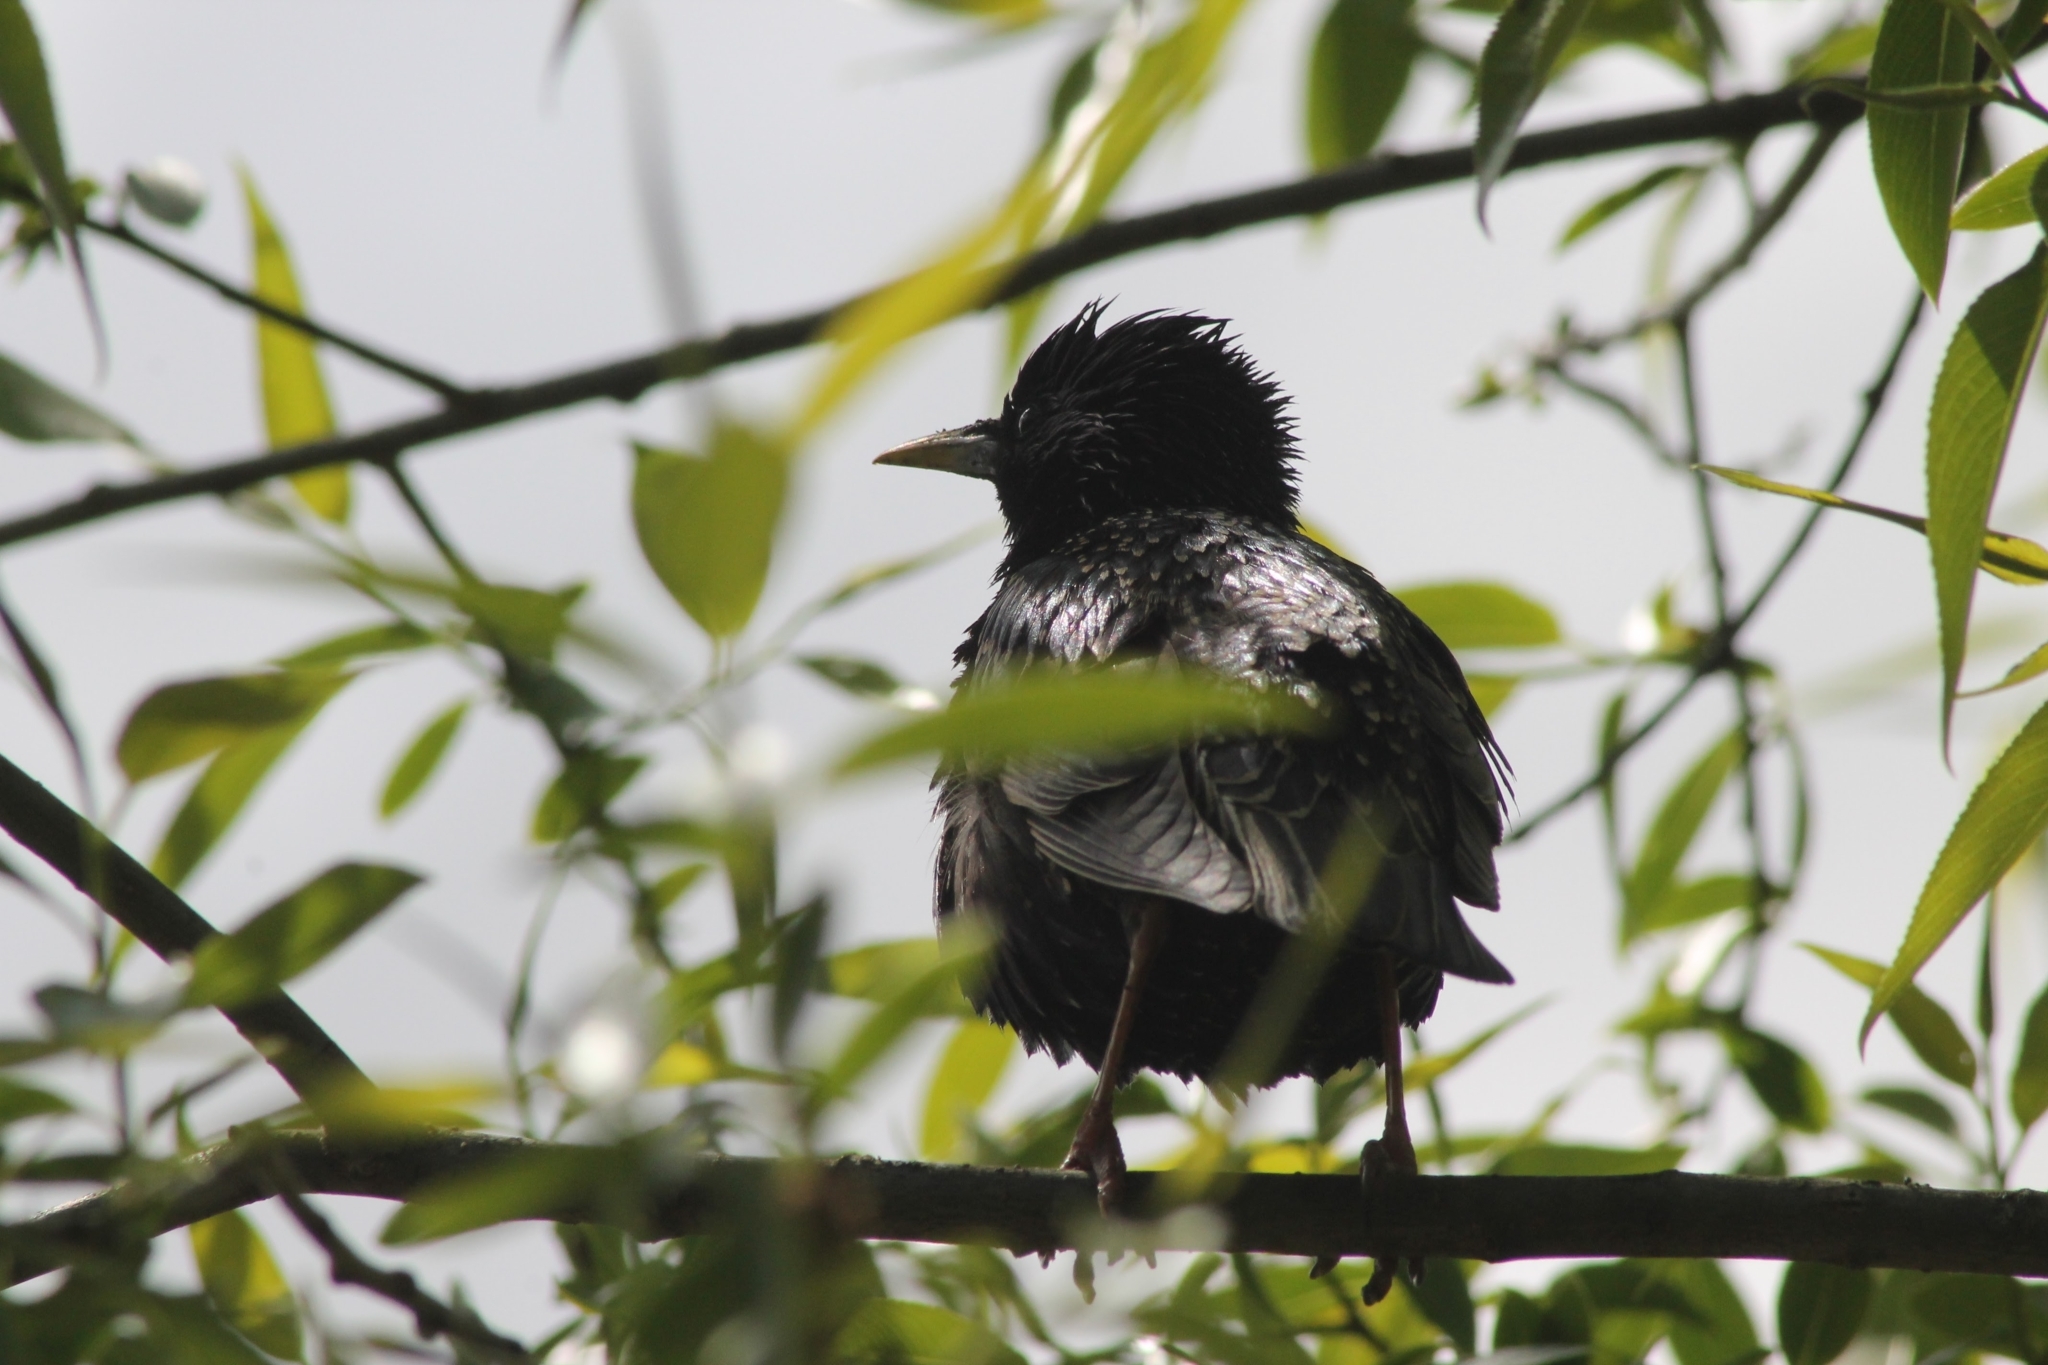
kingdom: Animalia
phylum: Chordata
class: Aves
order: Passeriformes
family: Sturnidae
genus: Sturnus
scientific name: Sturnus vulgaris
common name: Common starling
